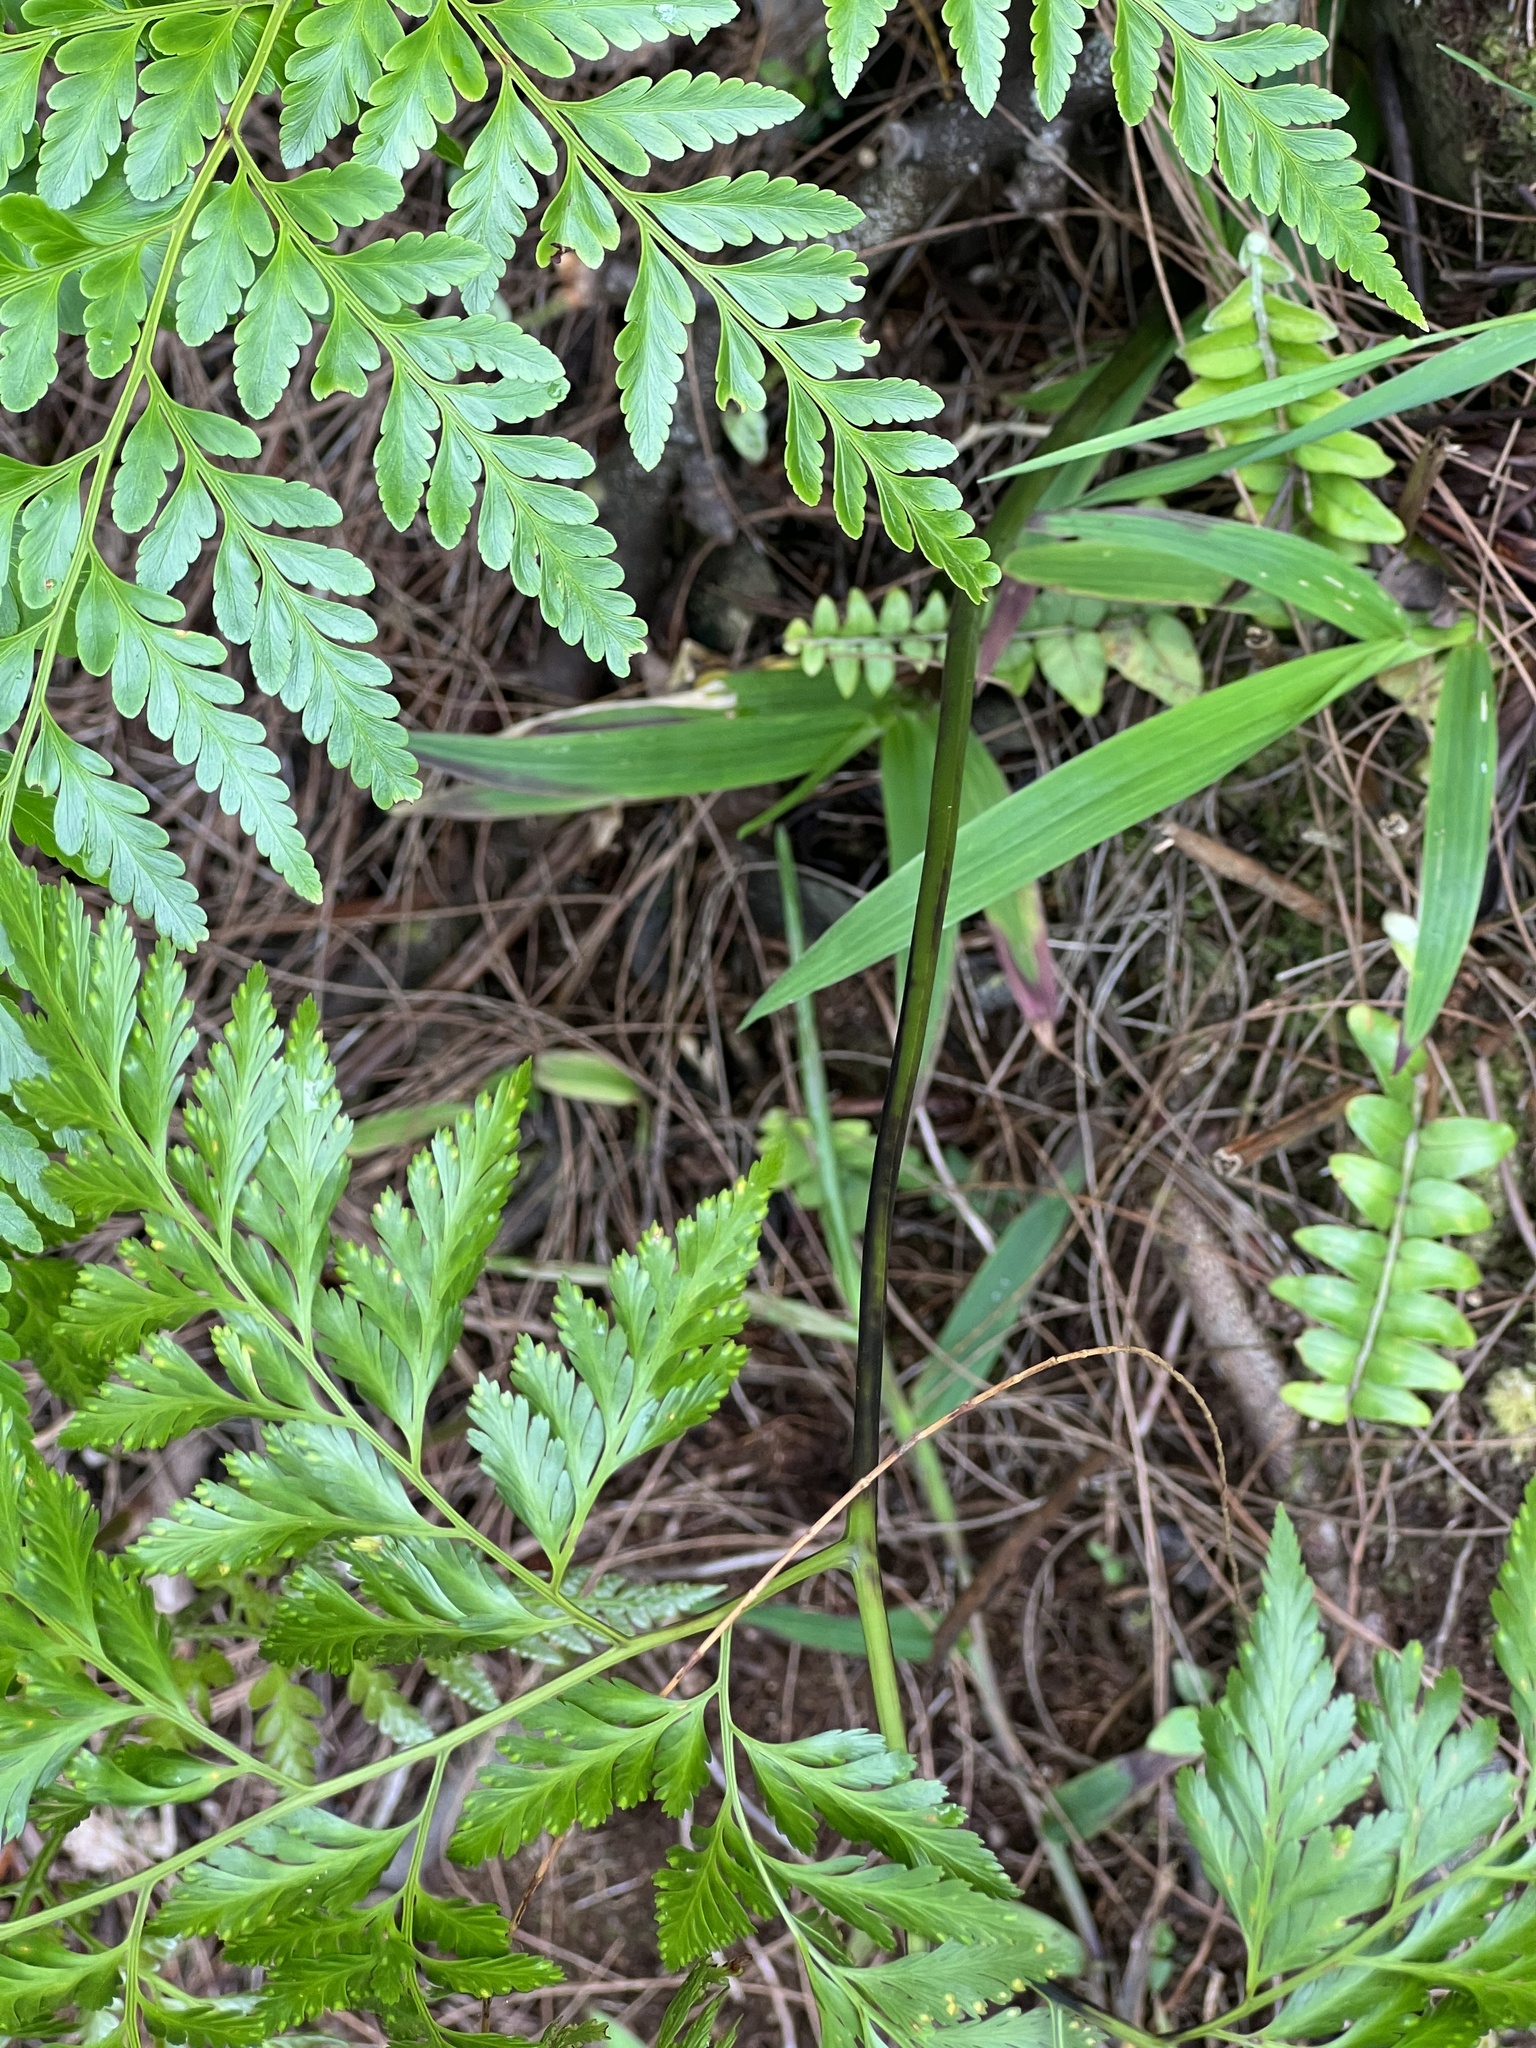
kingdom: Plantae
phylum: Tracheophyta
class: Polypodiopsida
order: Polypodiales
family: Davalliaceae
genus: Davallia
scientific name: Davallia solida
